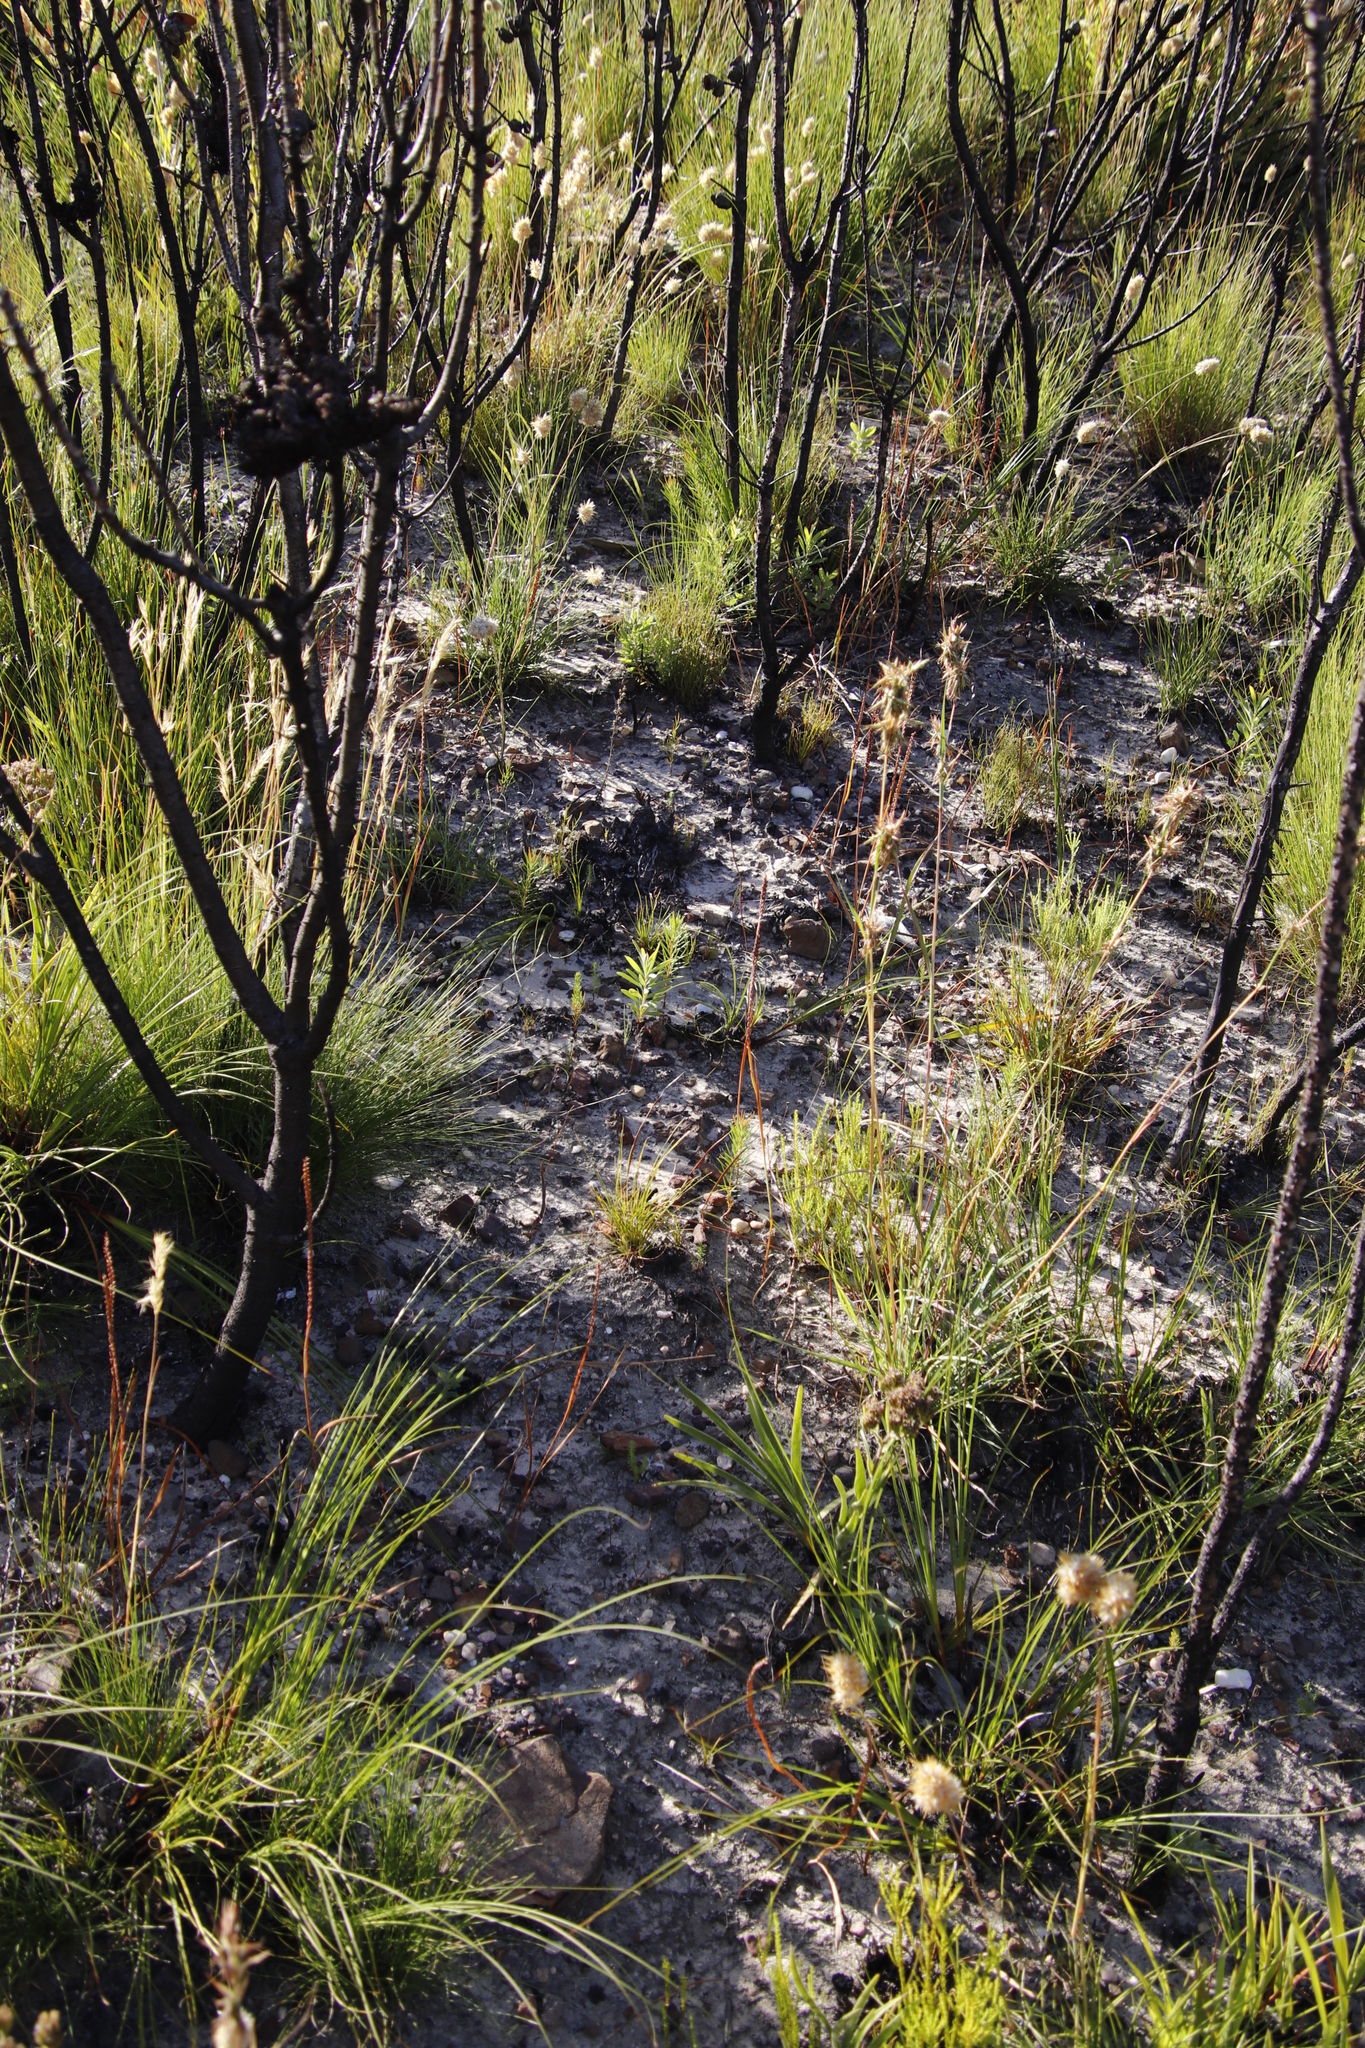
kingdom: Plantae
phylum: Tracheophyta
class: Magnoliopsida
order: Proteales
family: Proteaceae
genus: Protea
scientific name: Protea repens
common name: Sugarbush
